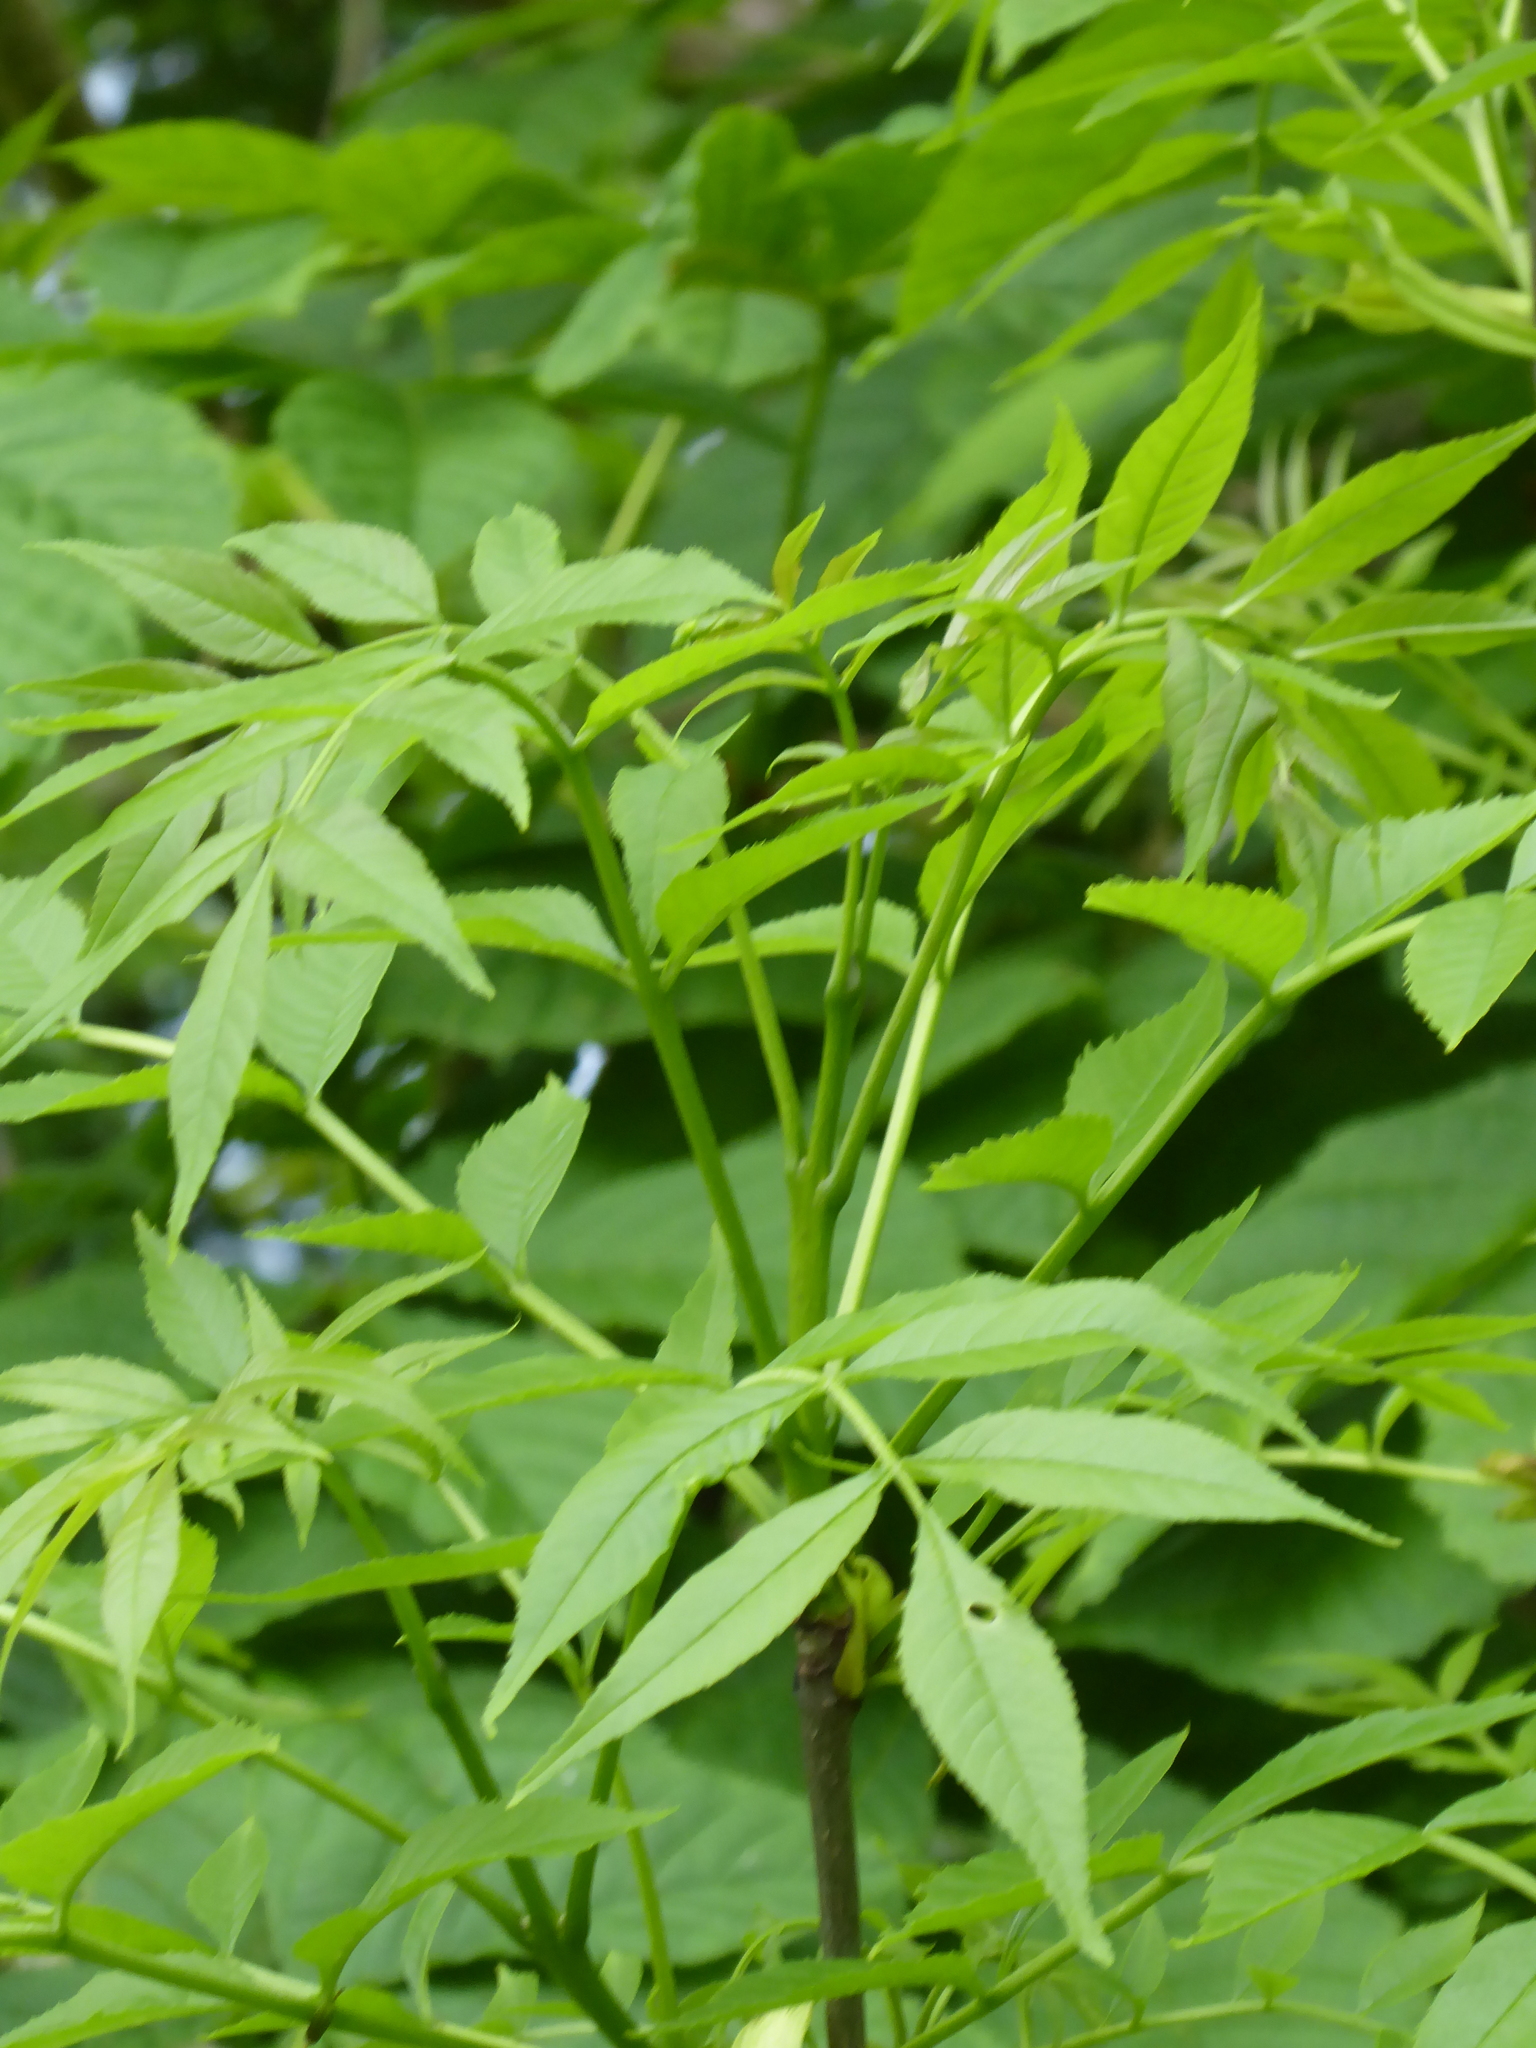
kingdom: Plantae
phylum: Tracheophyta
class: Magnoliopsida
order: Lamiales
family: Oleaceae
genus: Fraxinus
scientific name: Fraxinus excelsior
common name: European ash
